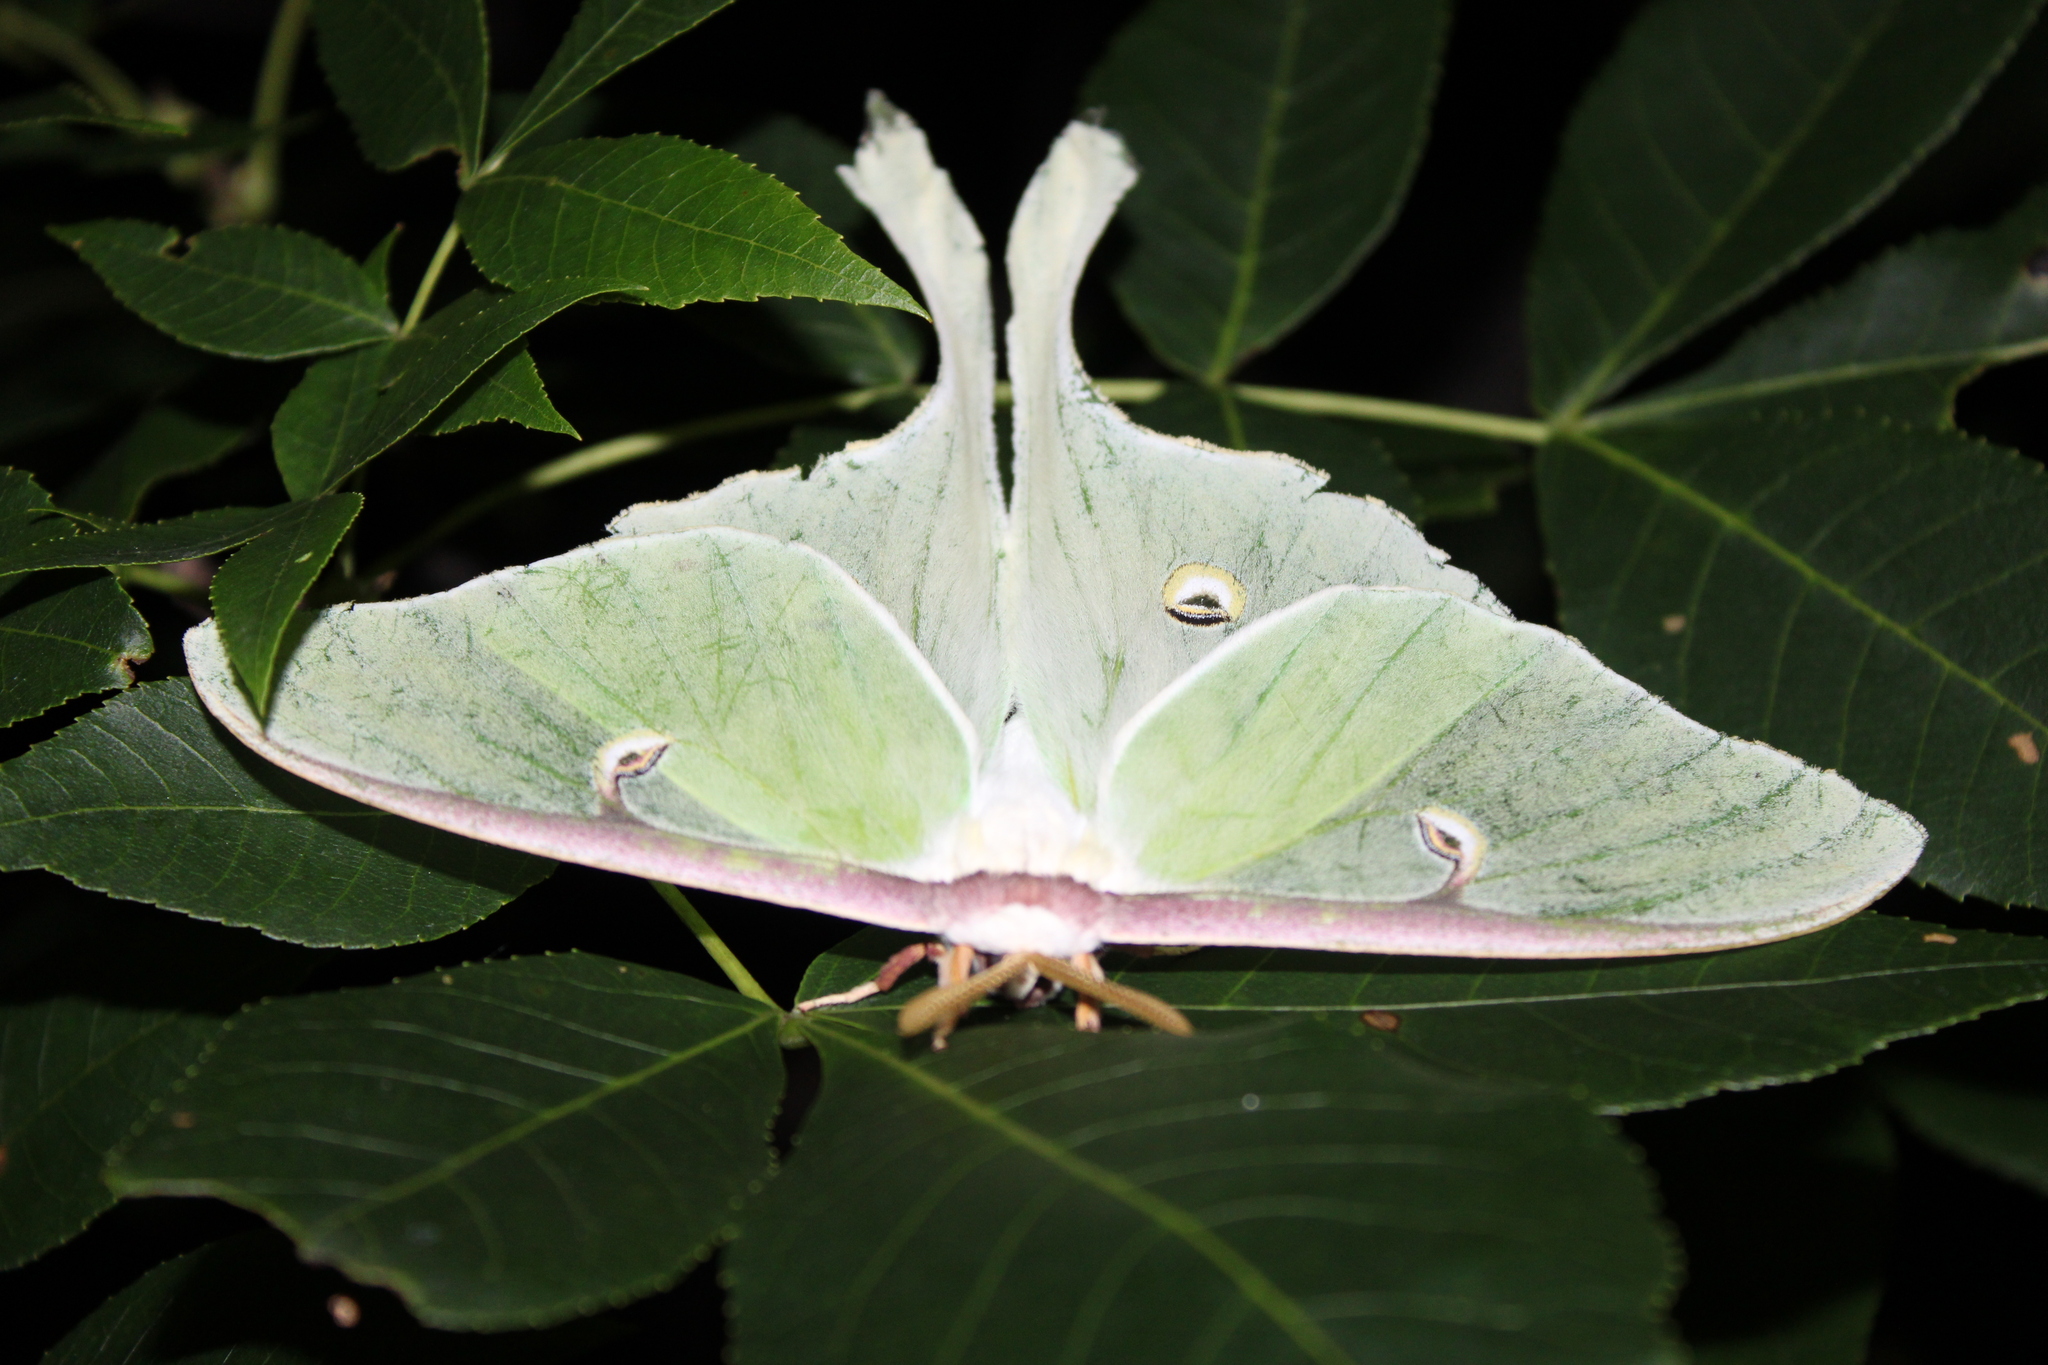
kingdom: Animalia
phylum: Arthropoda
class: Insecta
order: Lepidoptera
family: Saturniidae
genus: Actias
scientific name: Actias luna
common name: Luna moth
